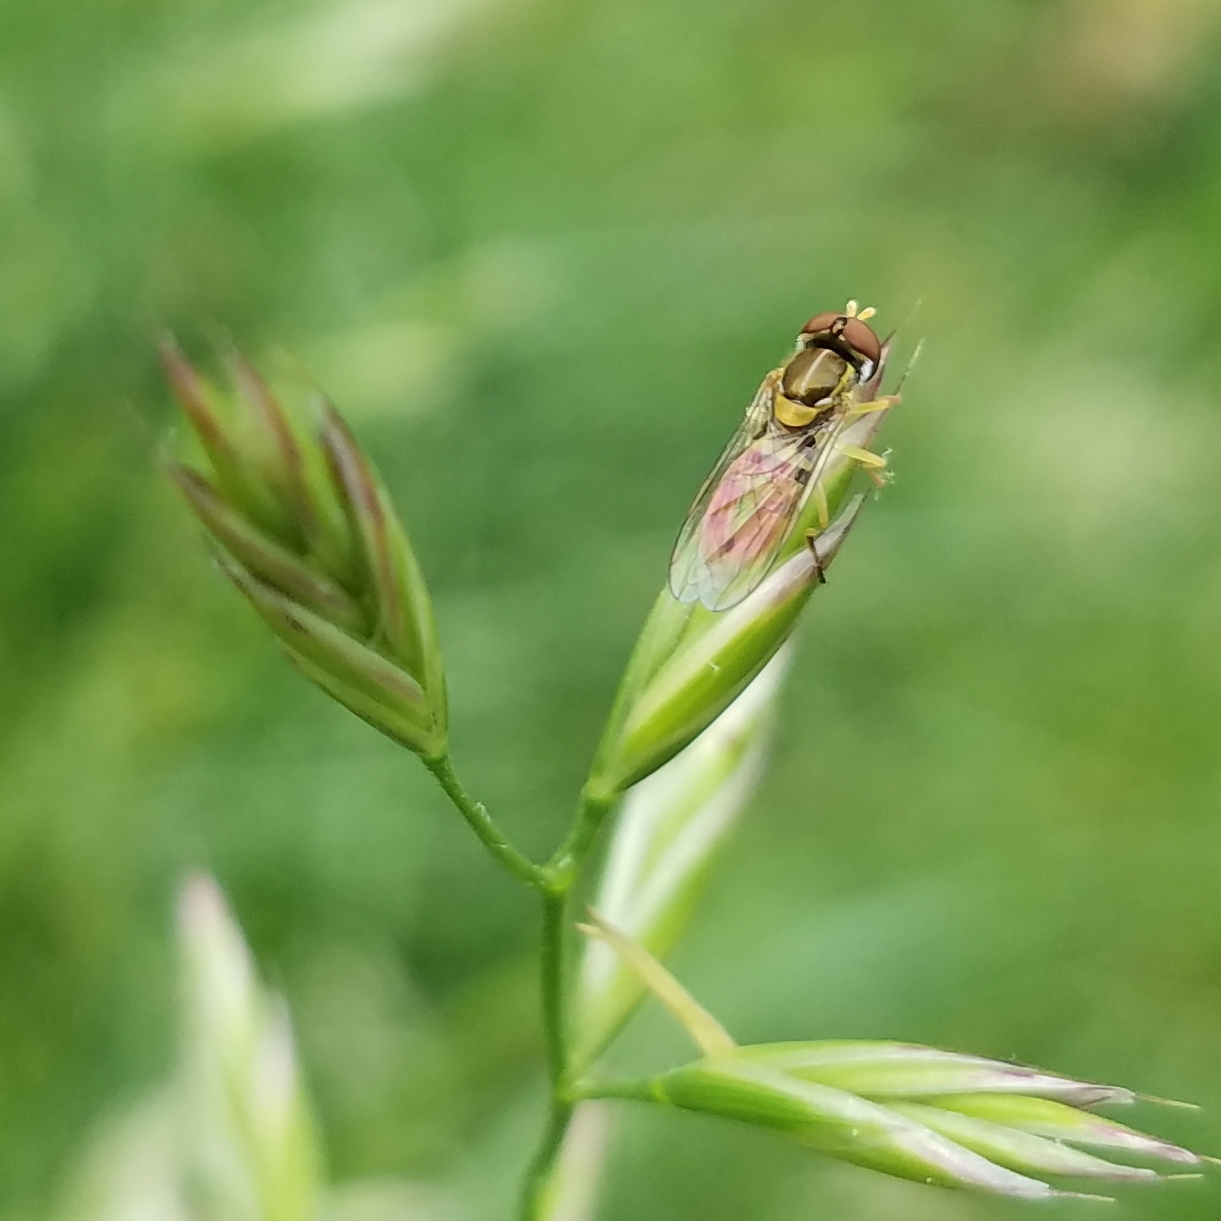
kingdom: Animalia
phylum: Arthropoda
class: Insecta
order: Diptera
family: Syrphidae
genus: Toxomerus
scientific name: Toxomerus marginatus
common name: Syrphid fly
